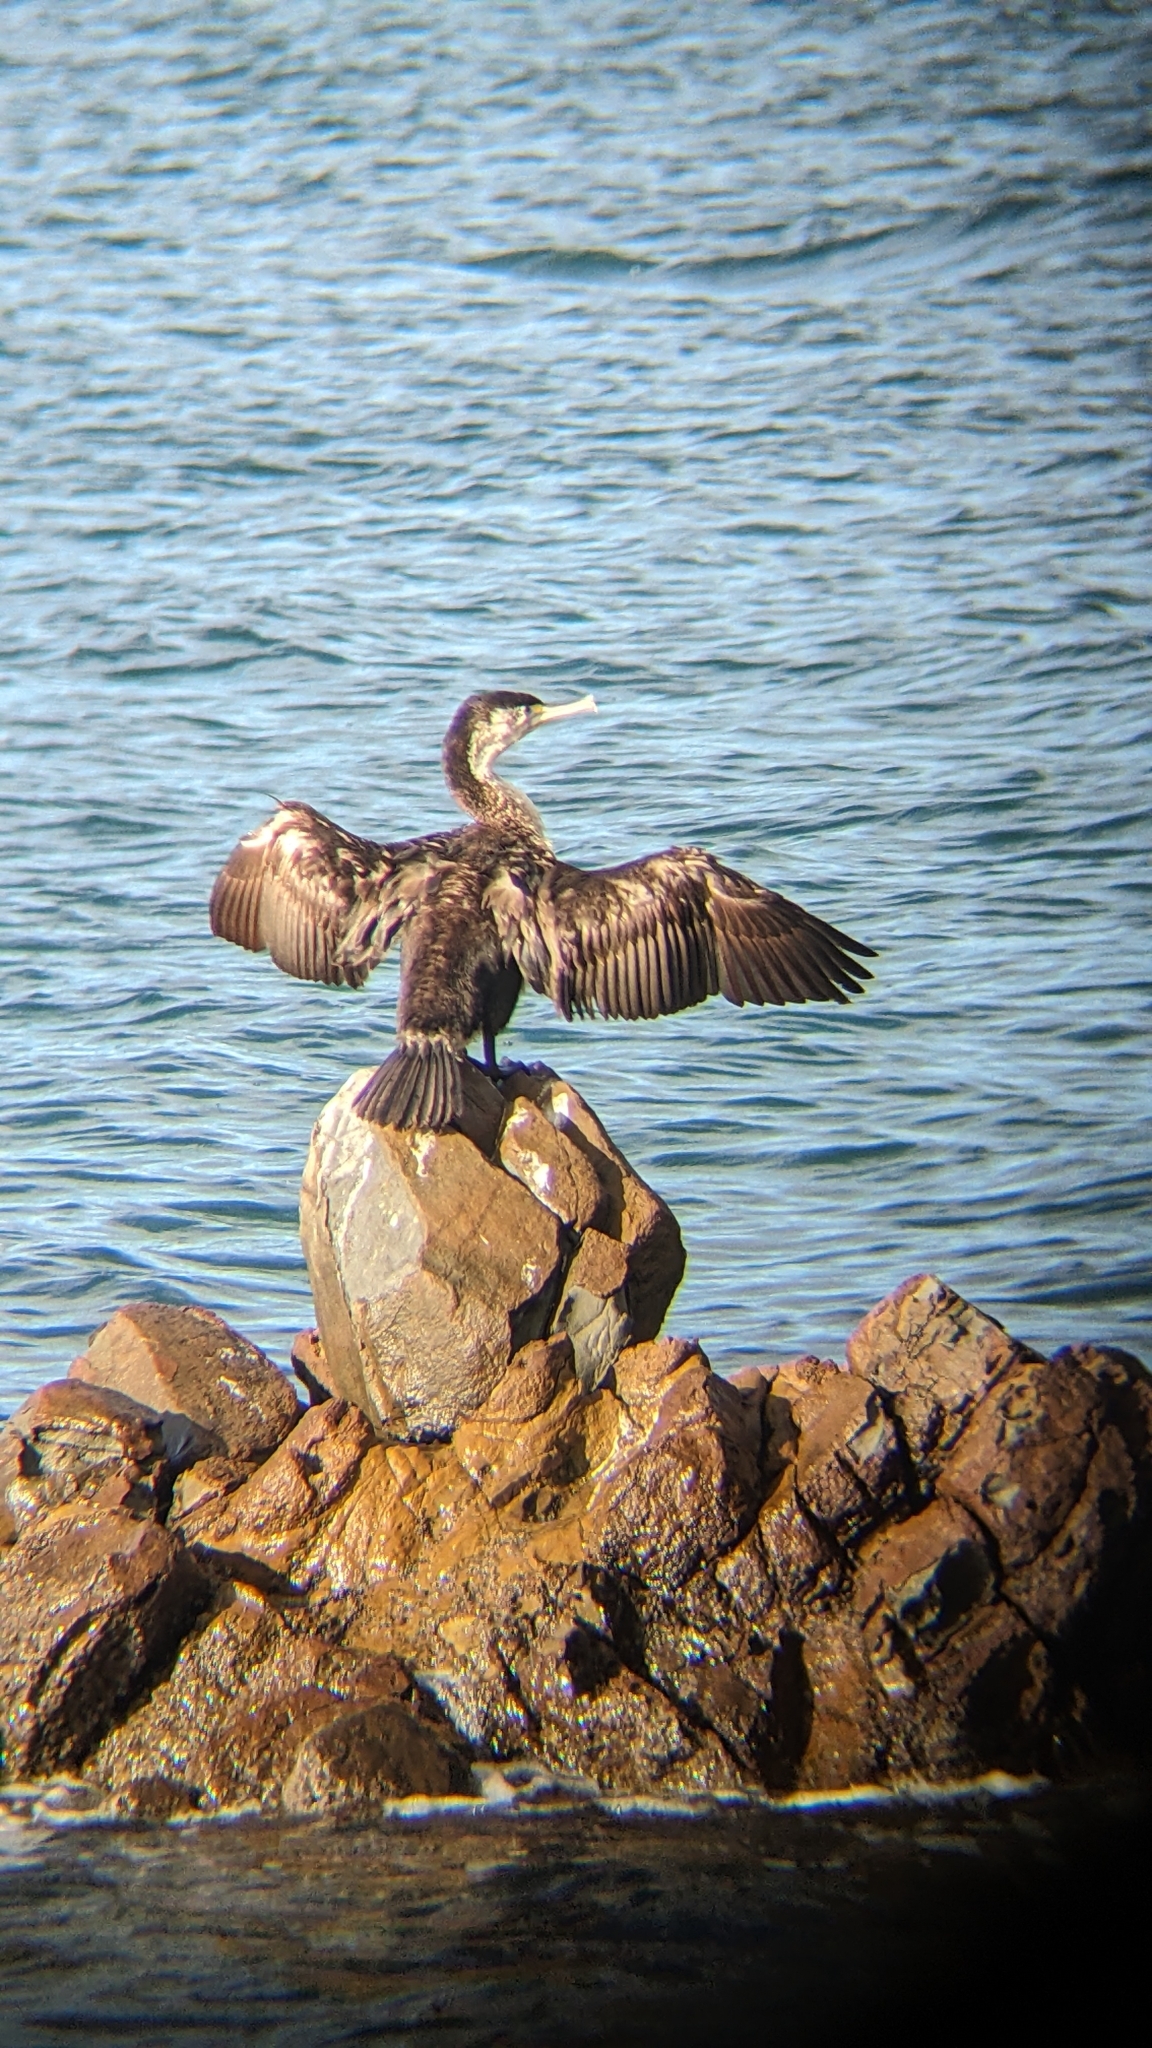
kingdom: Animalia
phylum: Chordata
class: Aves
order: Suliformes
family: Phalacrocoracidae
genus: Phalacrocorax
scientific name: Phalacrocorax varius
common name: Pied cormorant
